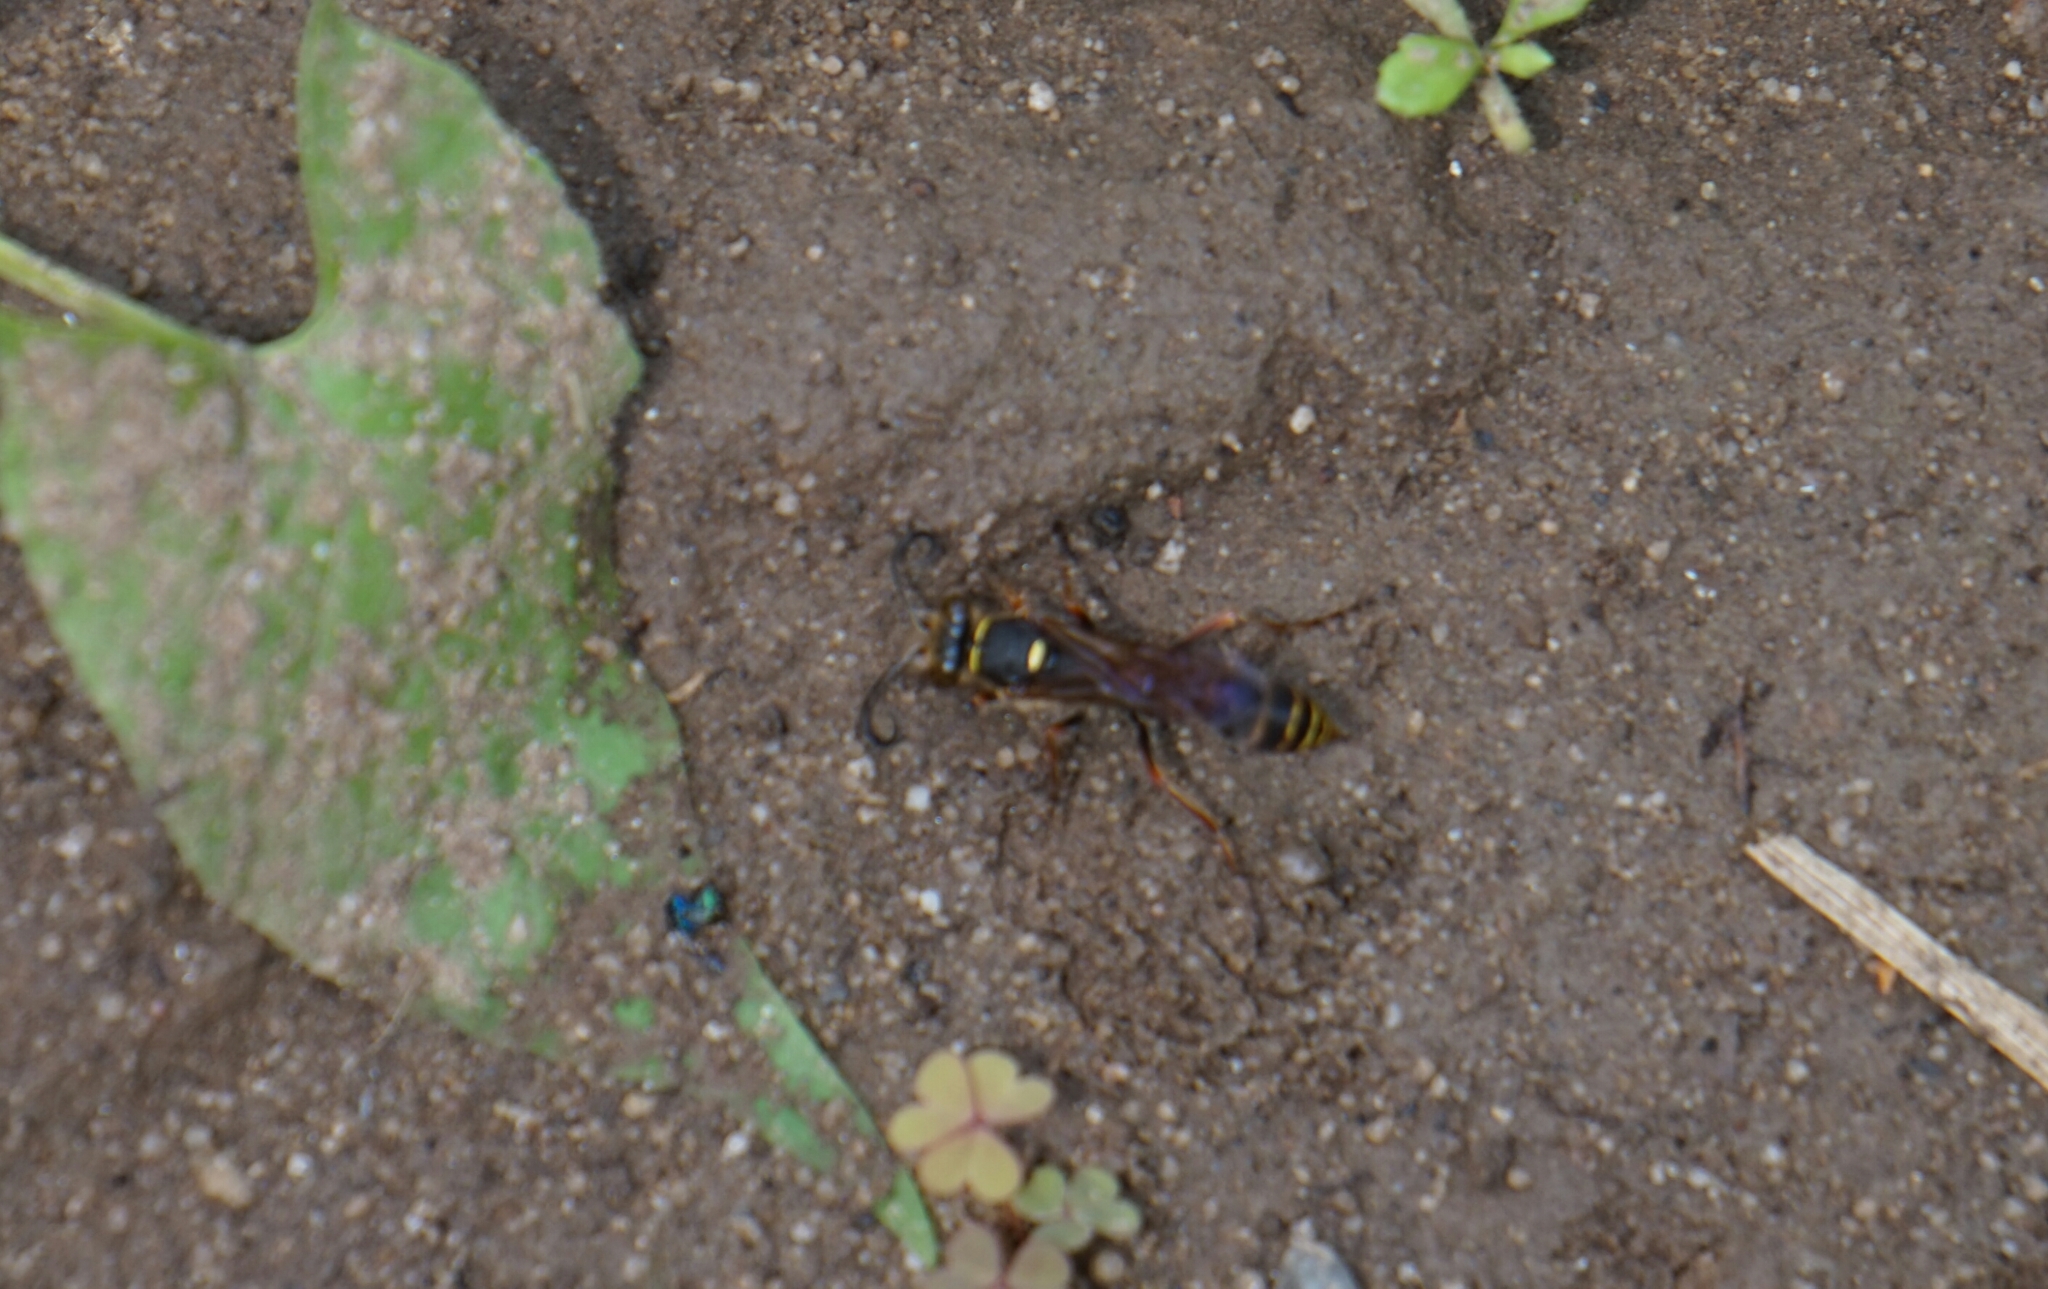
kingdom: Animalia
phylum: Arthropoda
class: Insecta
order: Hymenoptera
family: Sphecidae
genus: Sceliphron
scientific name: Sceliphron curvatum
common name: Pèlopèe
